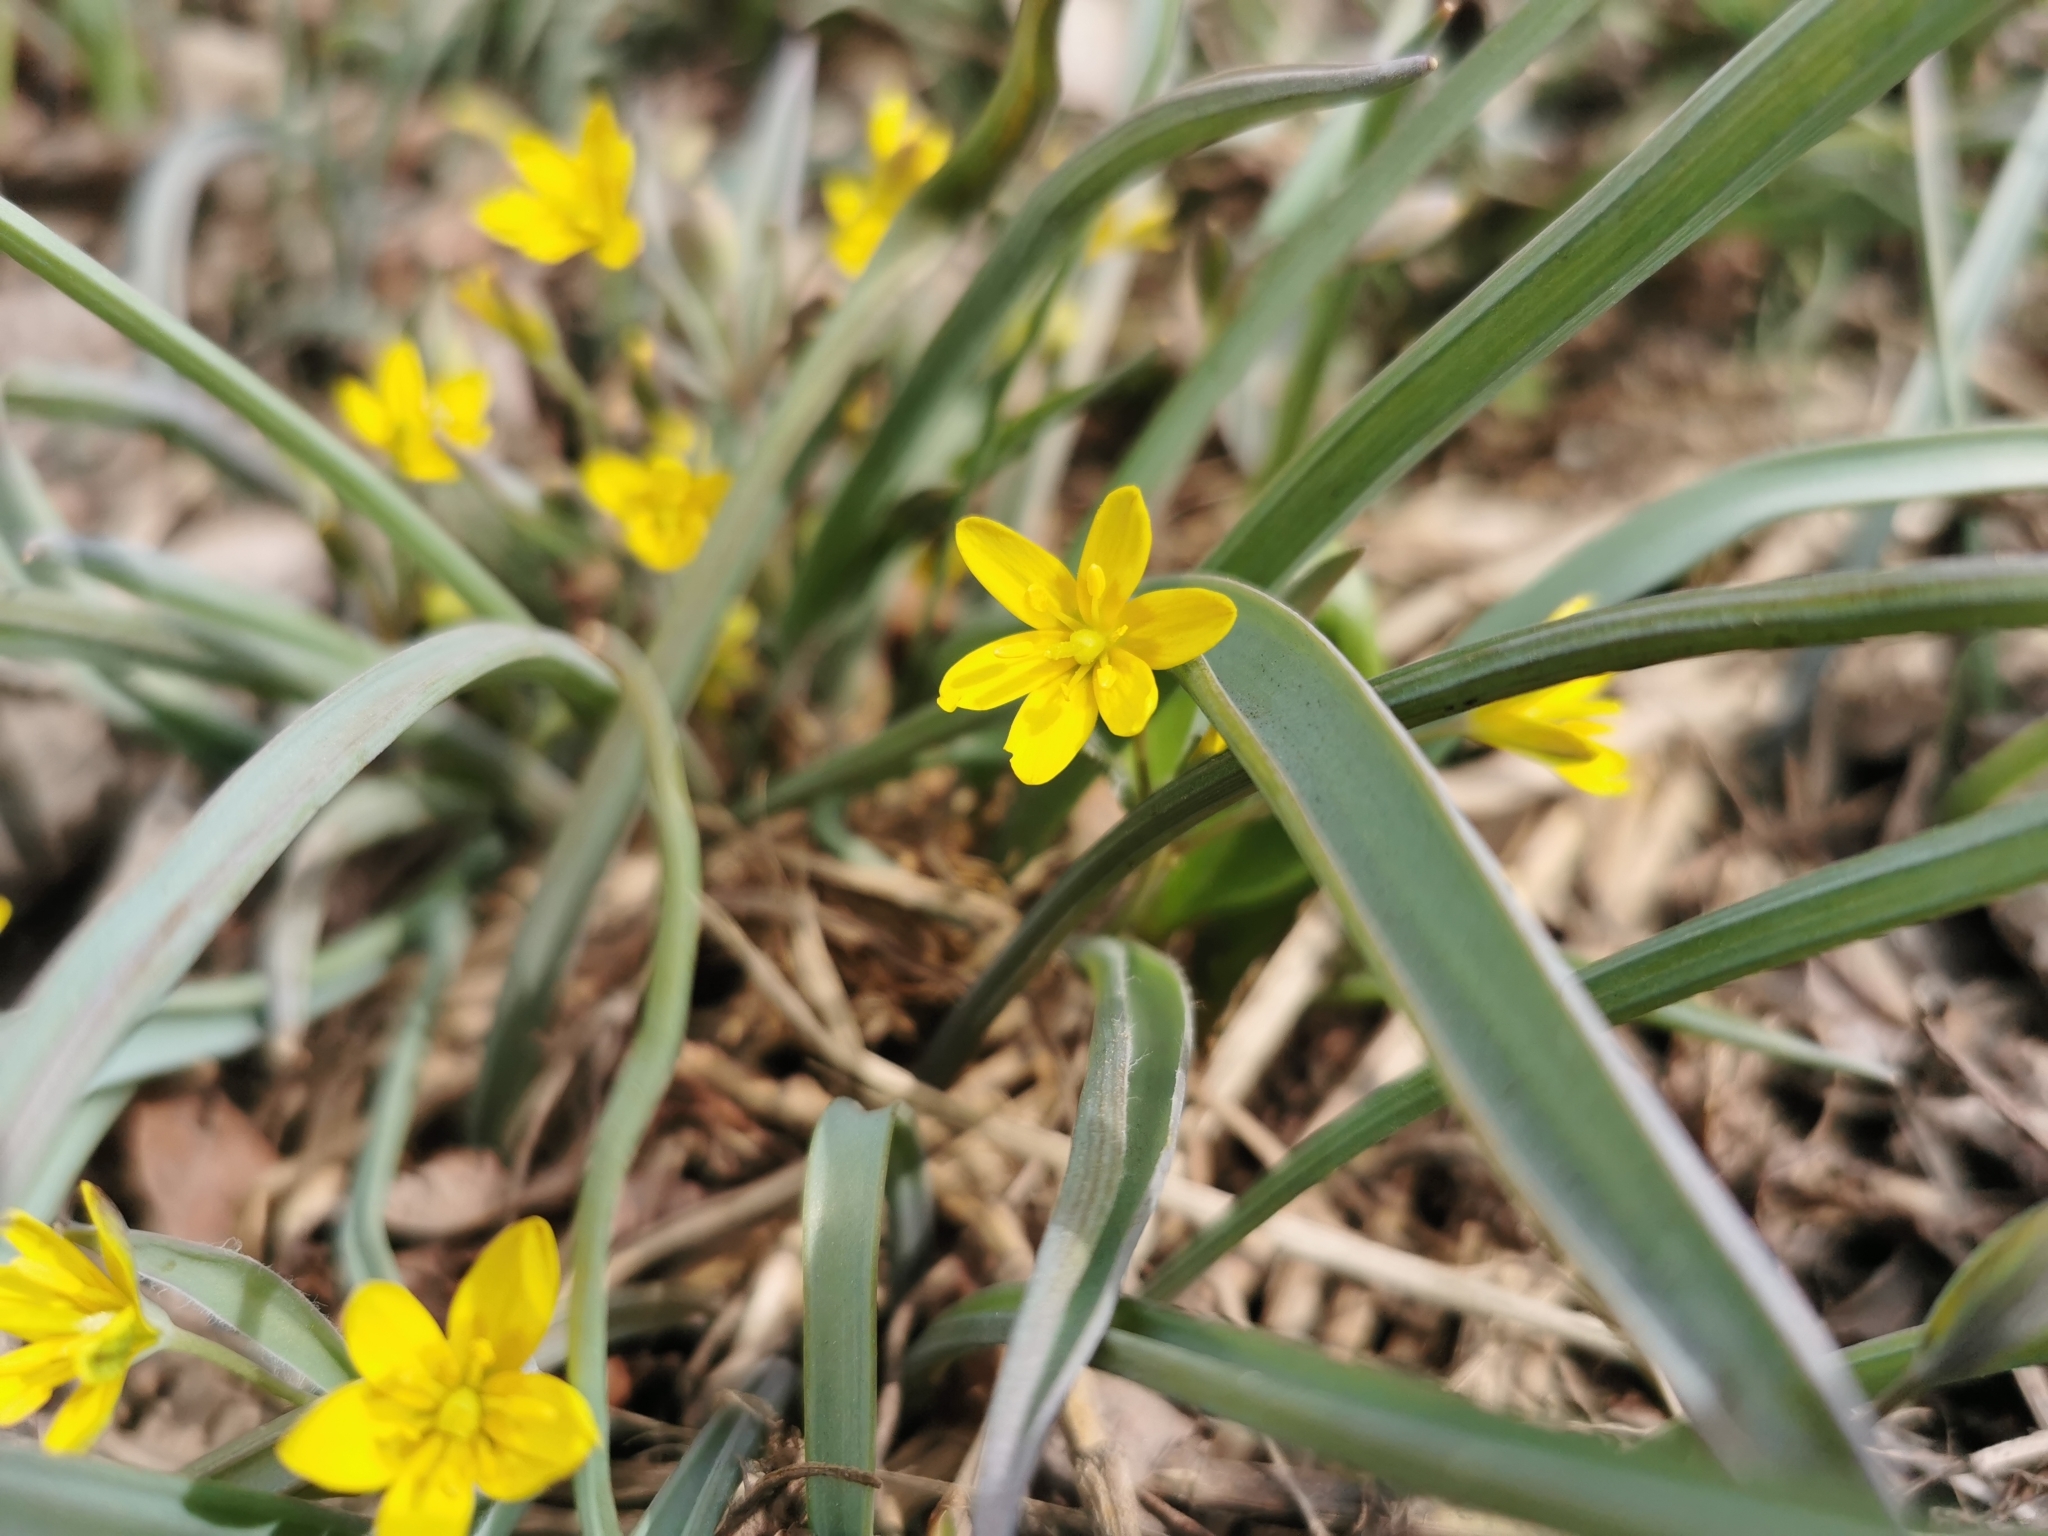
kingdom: Plantae
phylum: Tracheophyta
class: Liliopsida
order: Liliales
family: Liliaceae
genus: Gagea
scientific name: Gagea nakaiana
